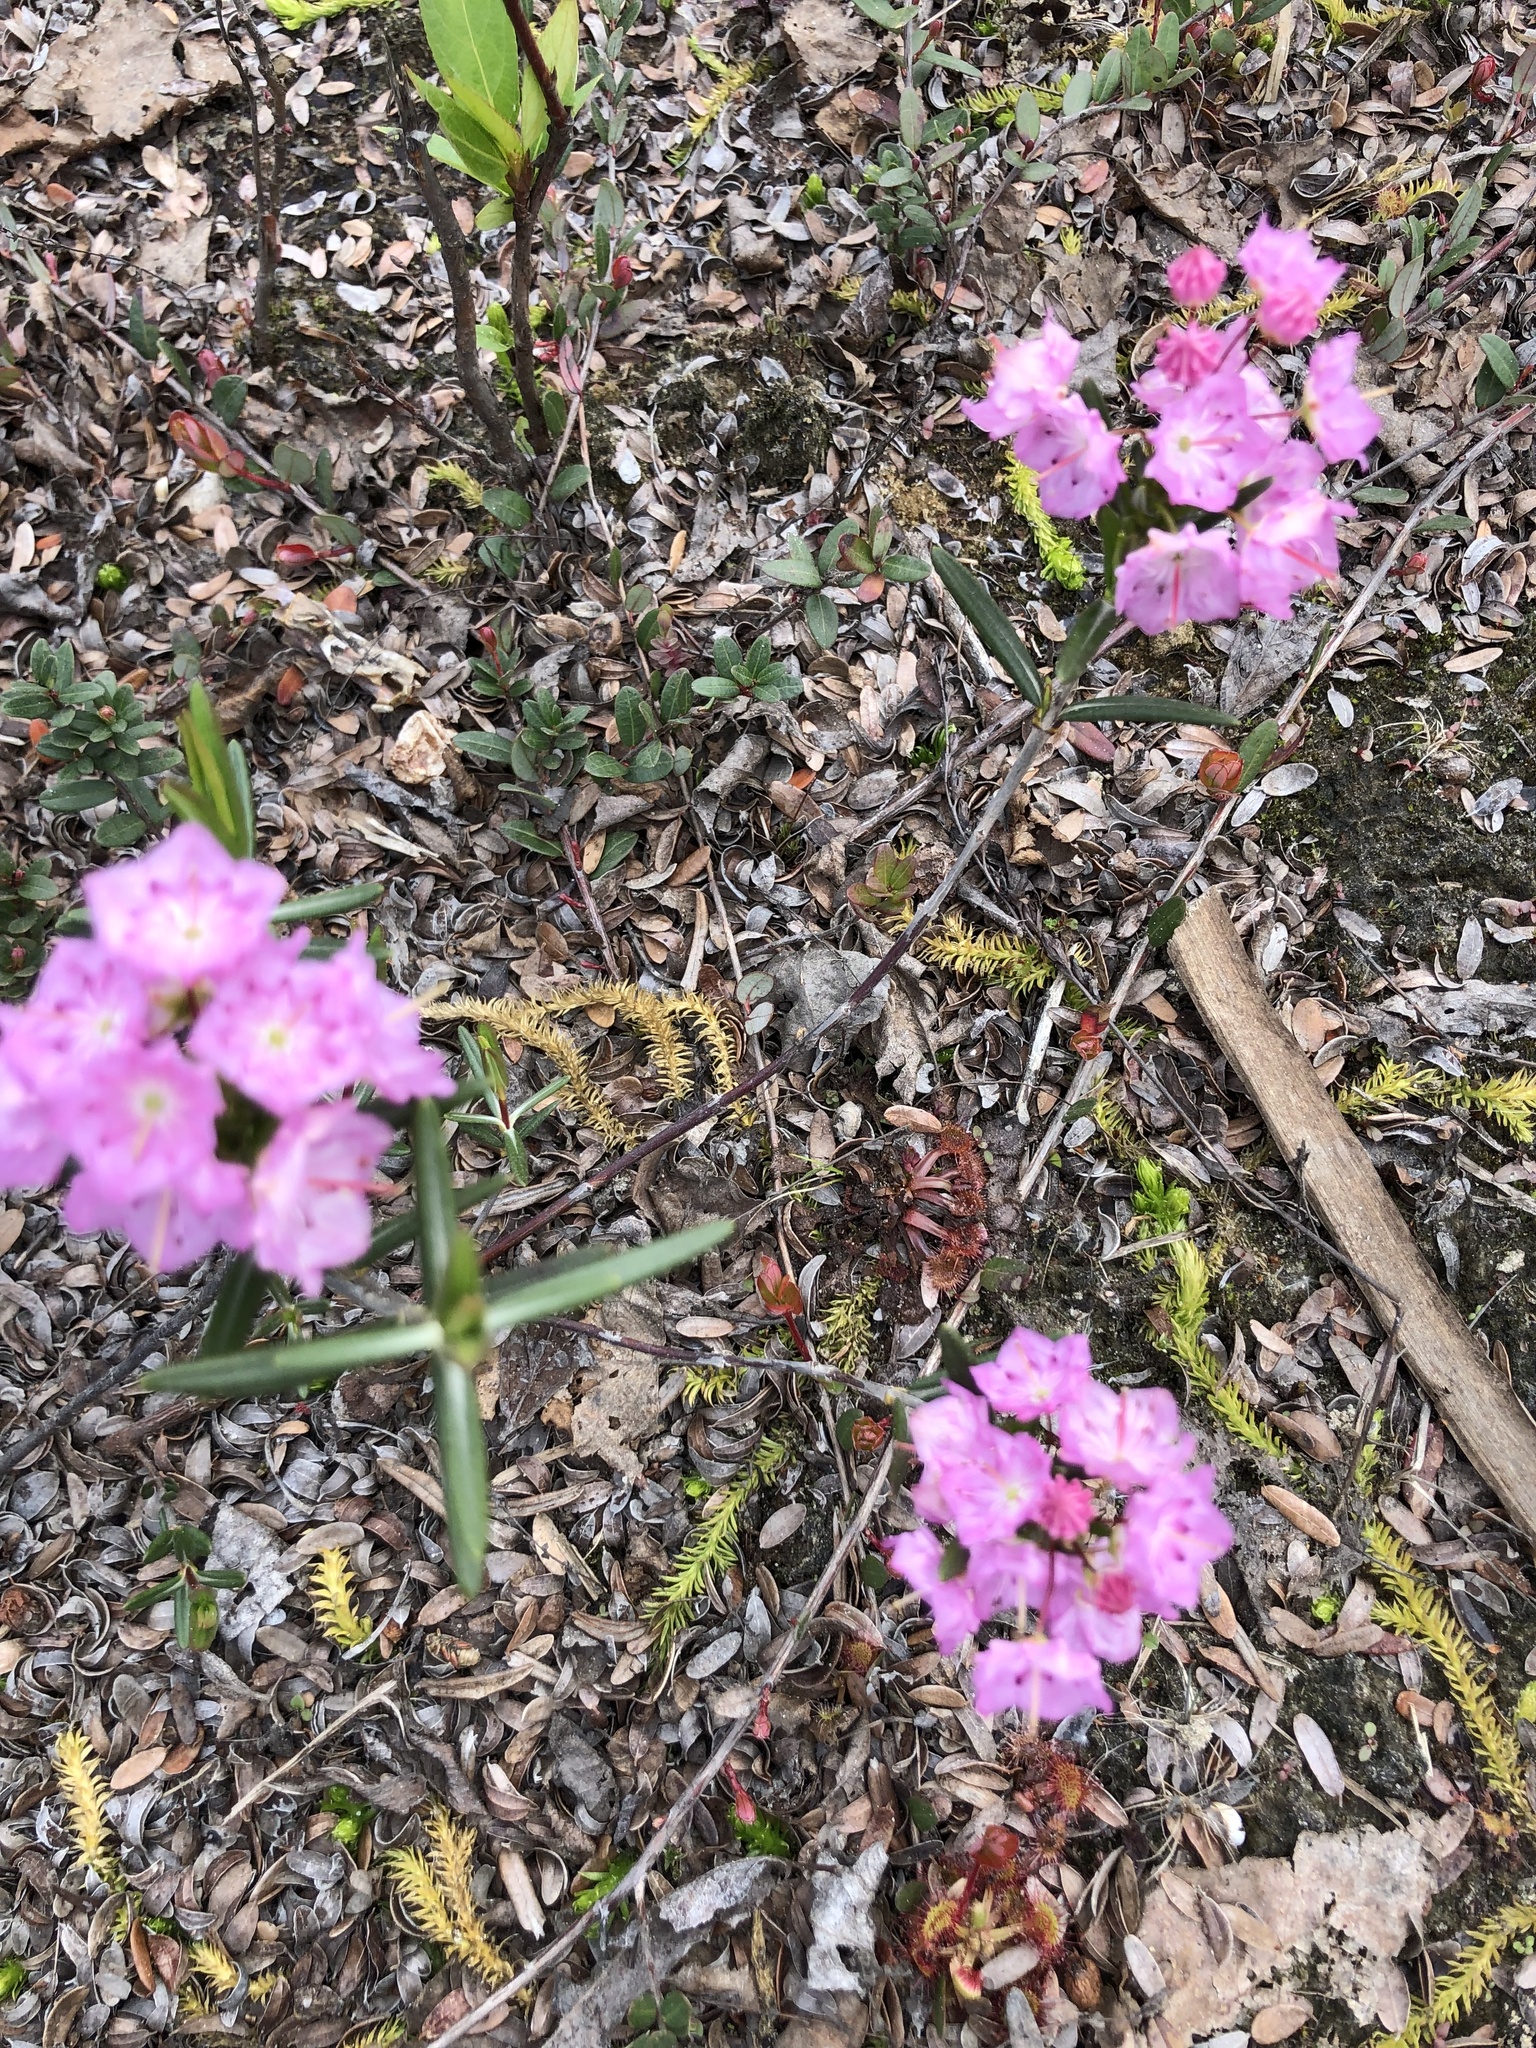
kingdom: Plantae
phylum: Tracheophyta
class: Magnoliopsida
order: Ericales
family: Ericaceae
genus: Kalmia
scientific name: Kalmia polifolia
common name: Bog-laurel
